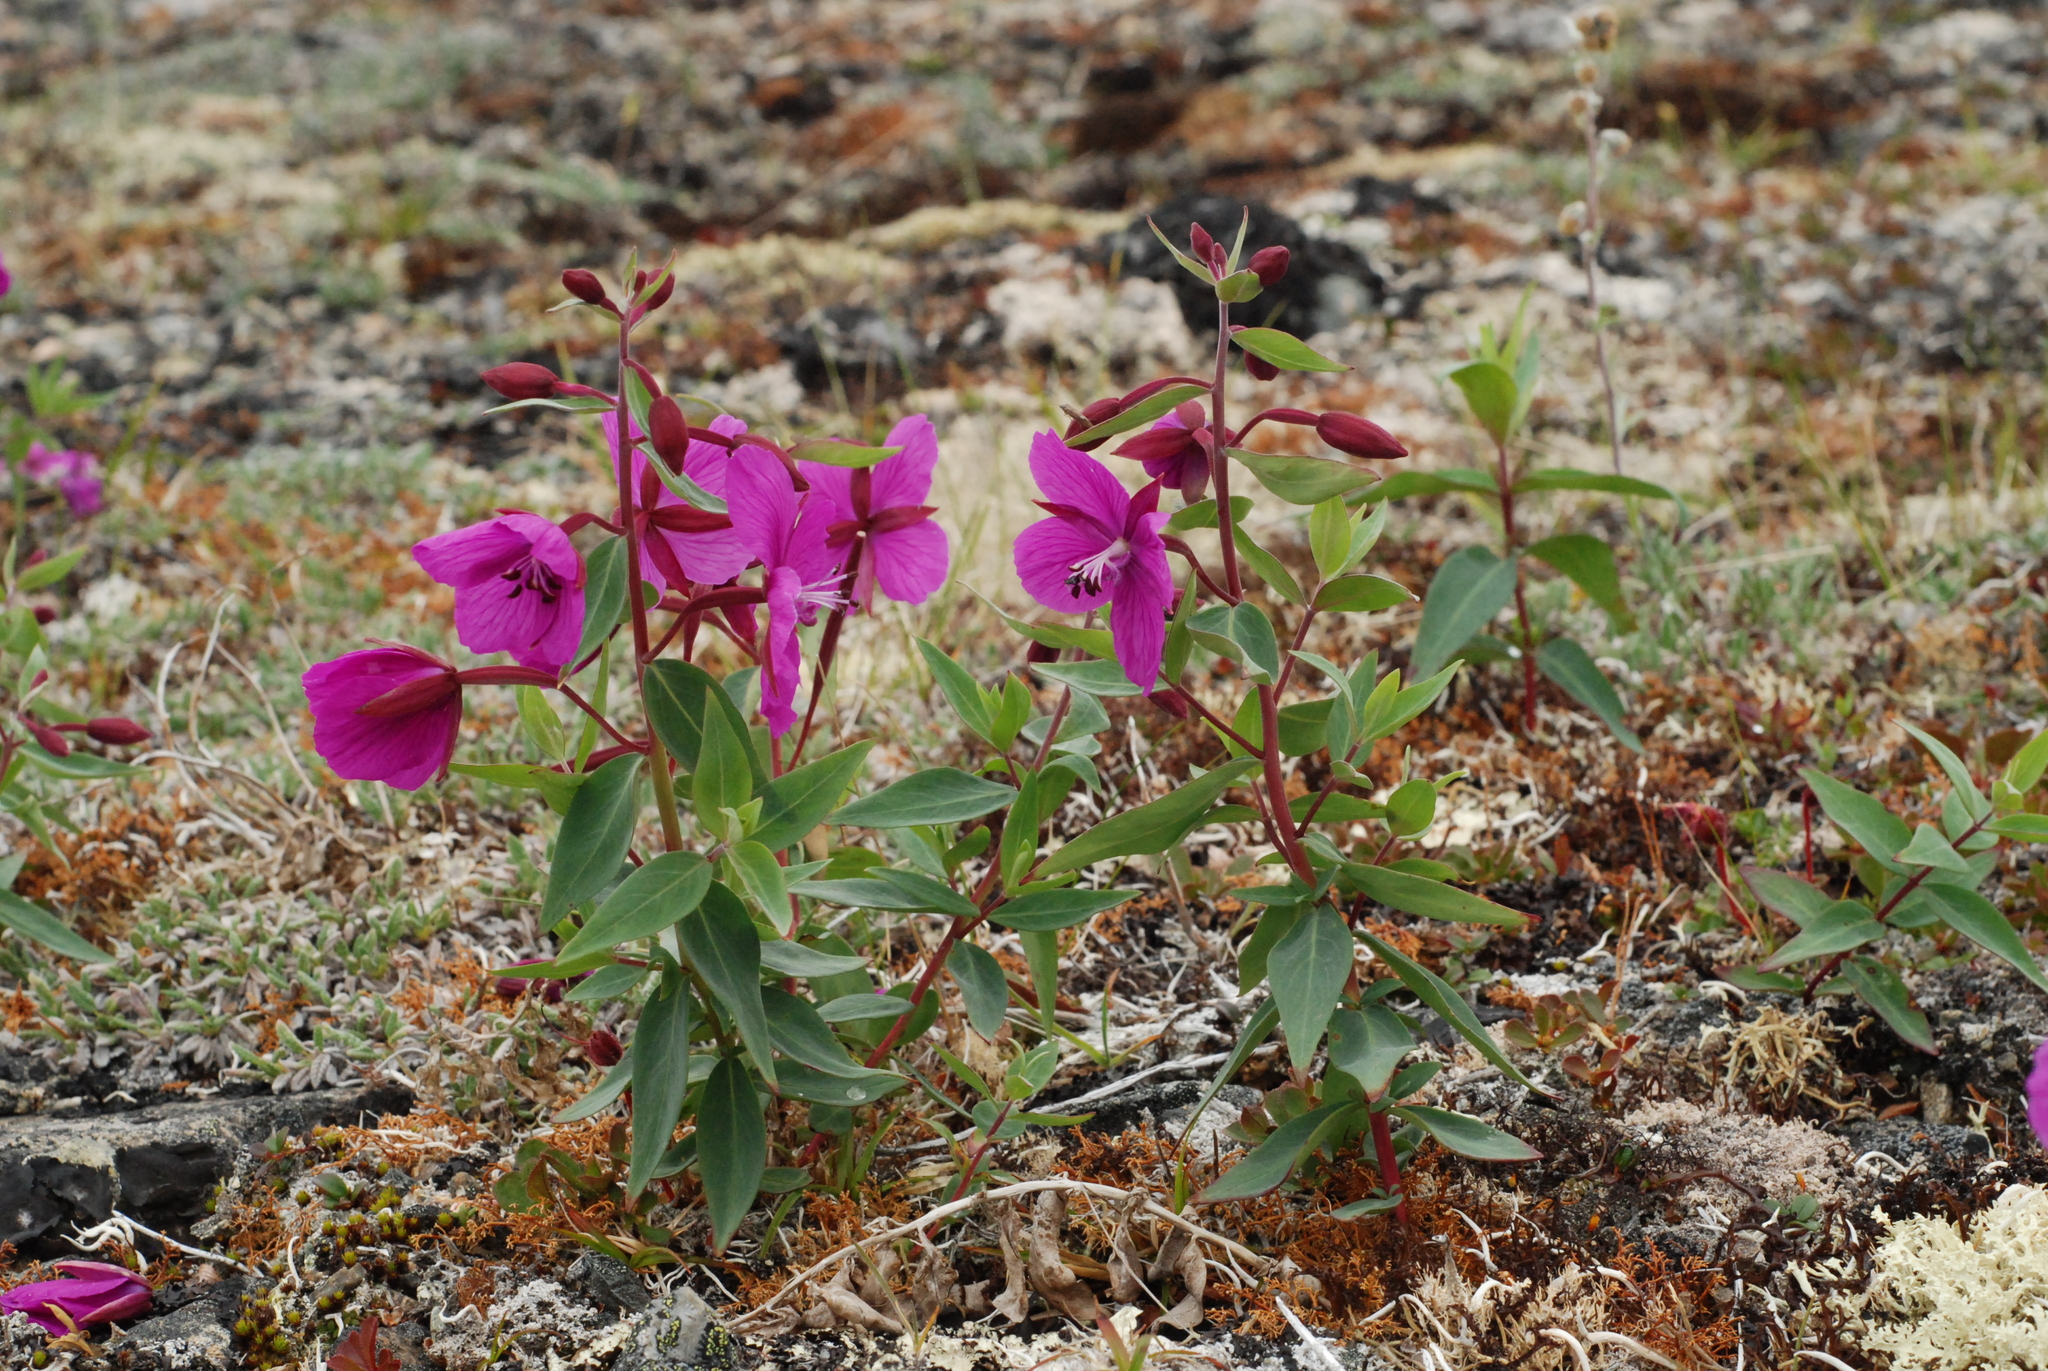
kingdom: Plantae
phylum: Tracheophyta
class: Magnoliopsida
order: Myrtales
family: Onagraceae
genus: Chamaenerion
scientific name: Chamaenerion latifolium
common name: Dwarf fireweed
